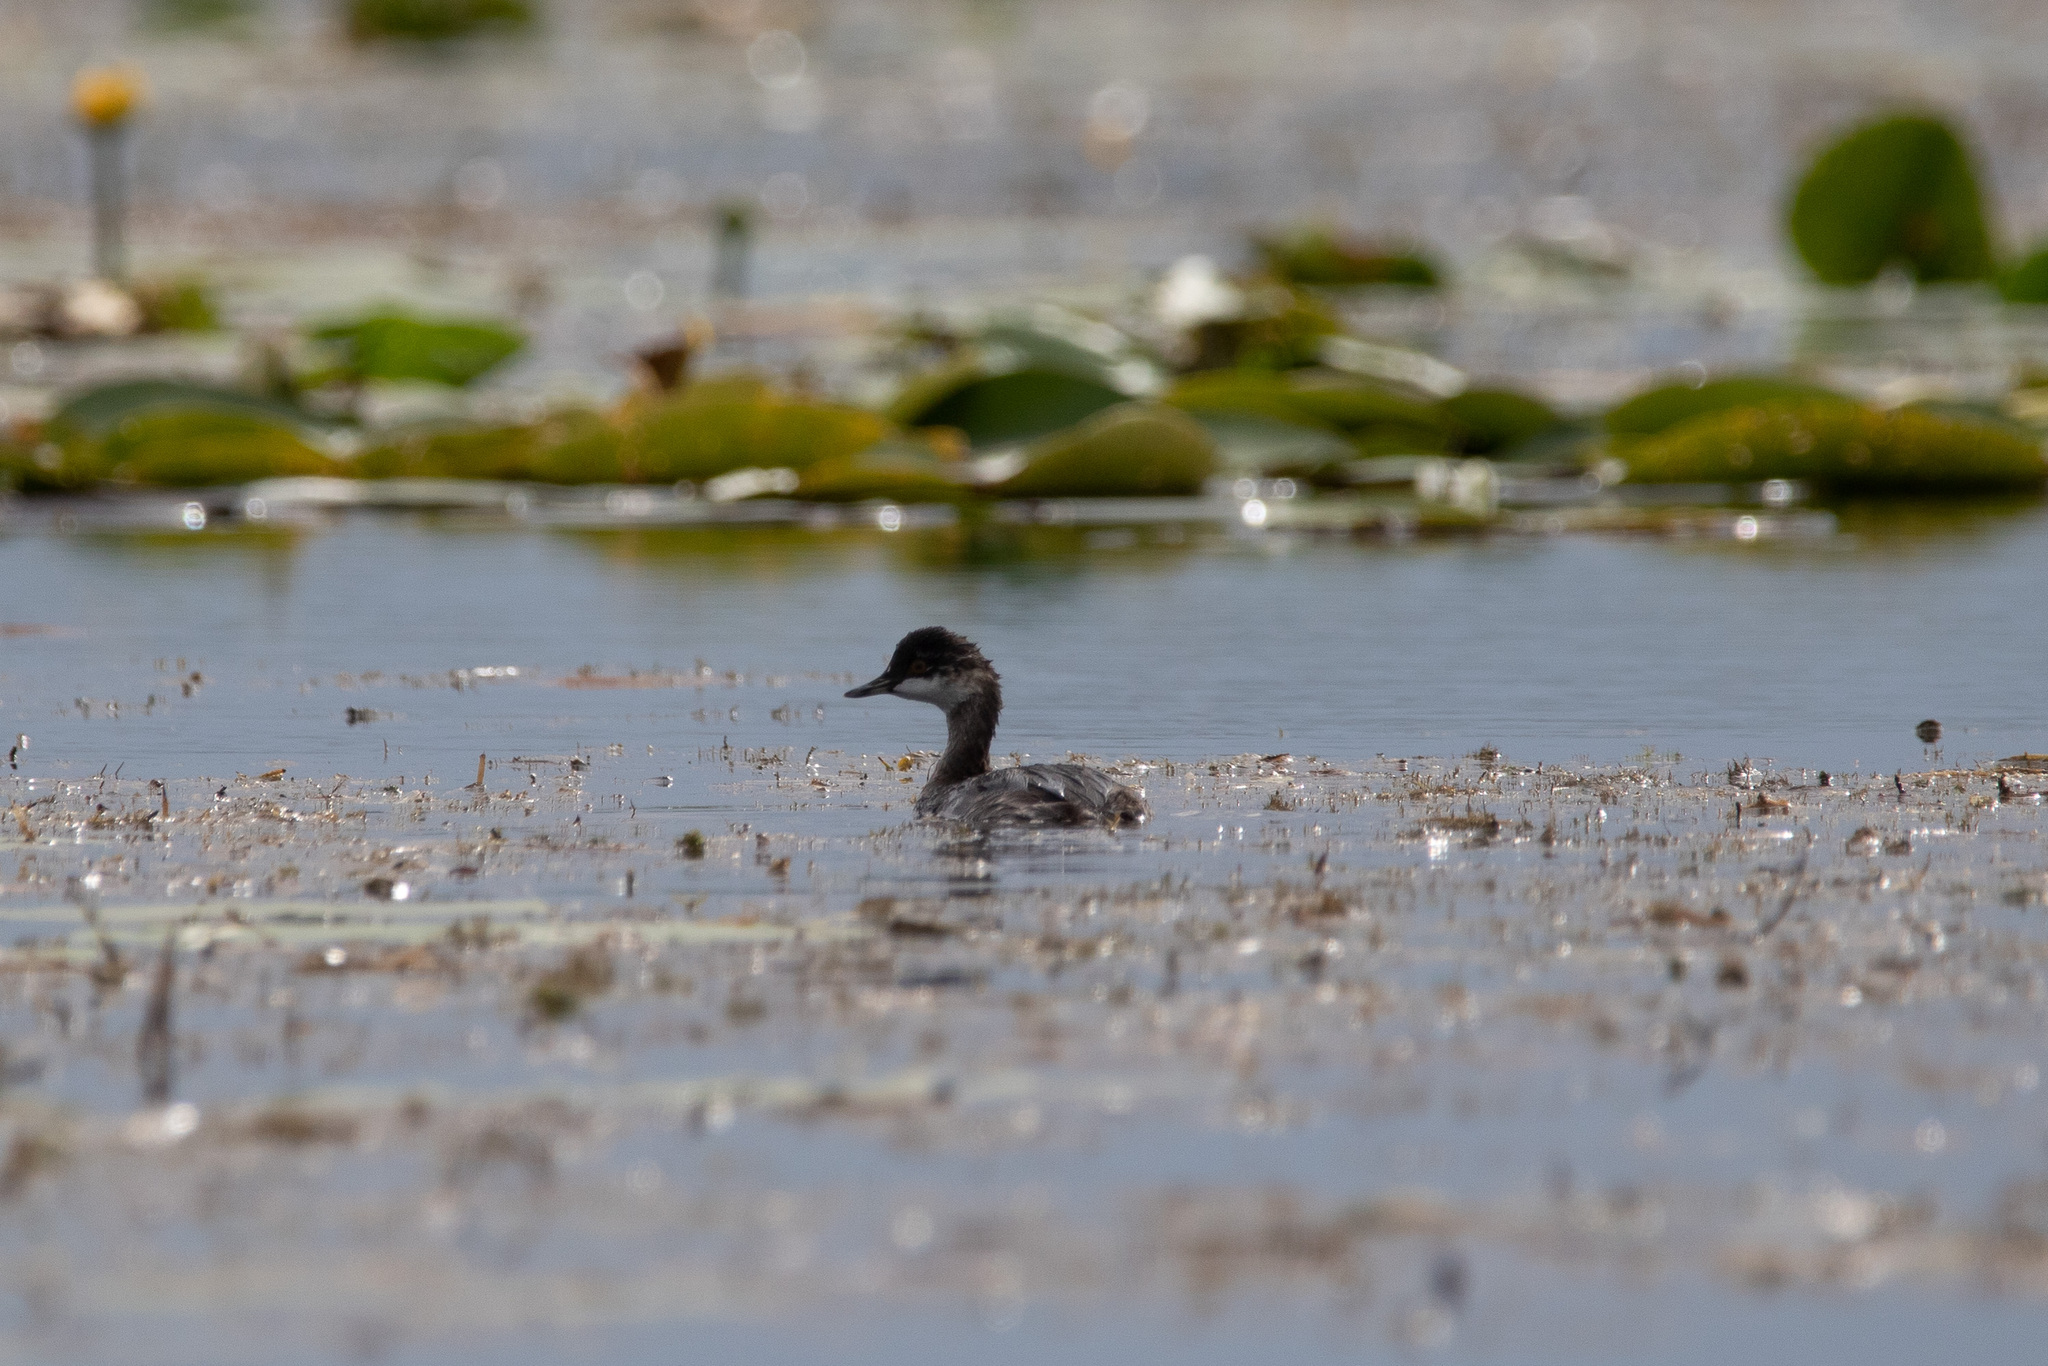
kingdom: Animalia
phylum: Chordata
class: Aves
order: Podicipediformes
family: Podicipedidae
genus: Podiceps
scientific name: Podiceps nigricollis
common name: Black-necked grebe
